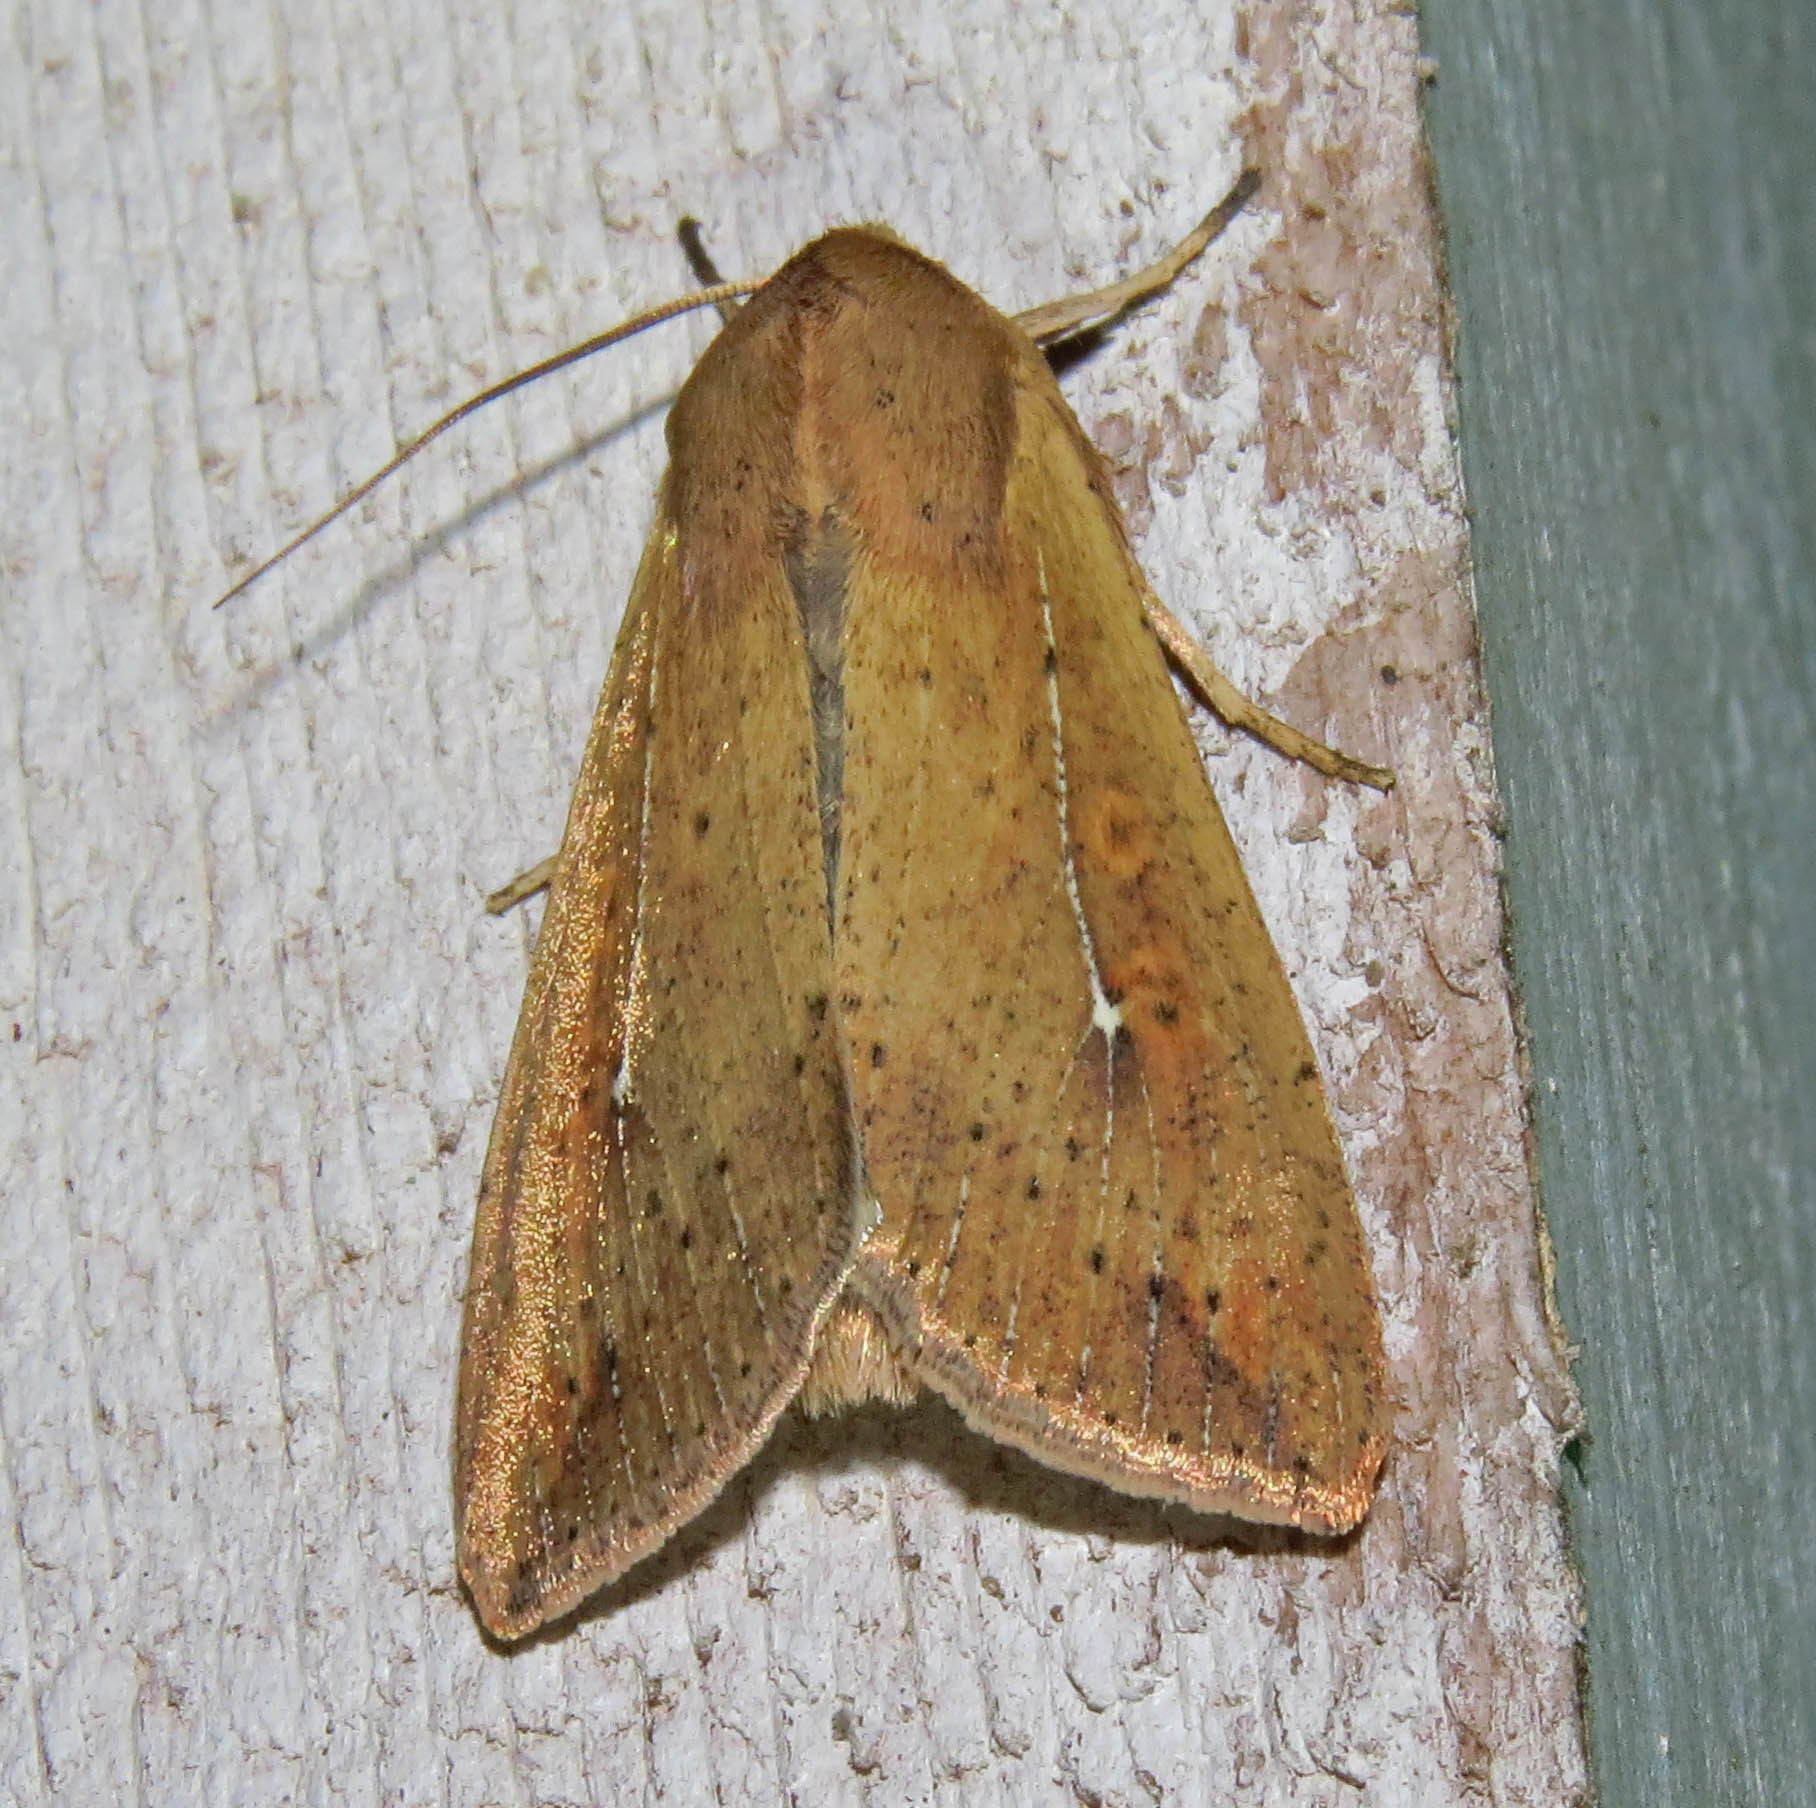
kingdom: Animalia
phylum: Arthropoda
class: Insecta
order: Lepidoptera
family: Noctuidae
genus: Mythimna
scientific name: Mythimna unipuncta
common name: White-speck
